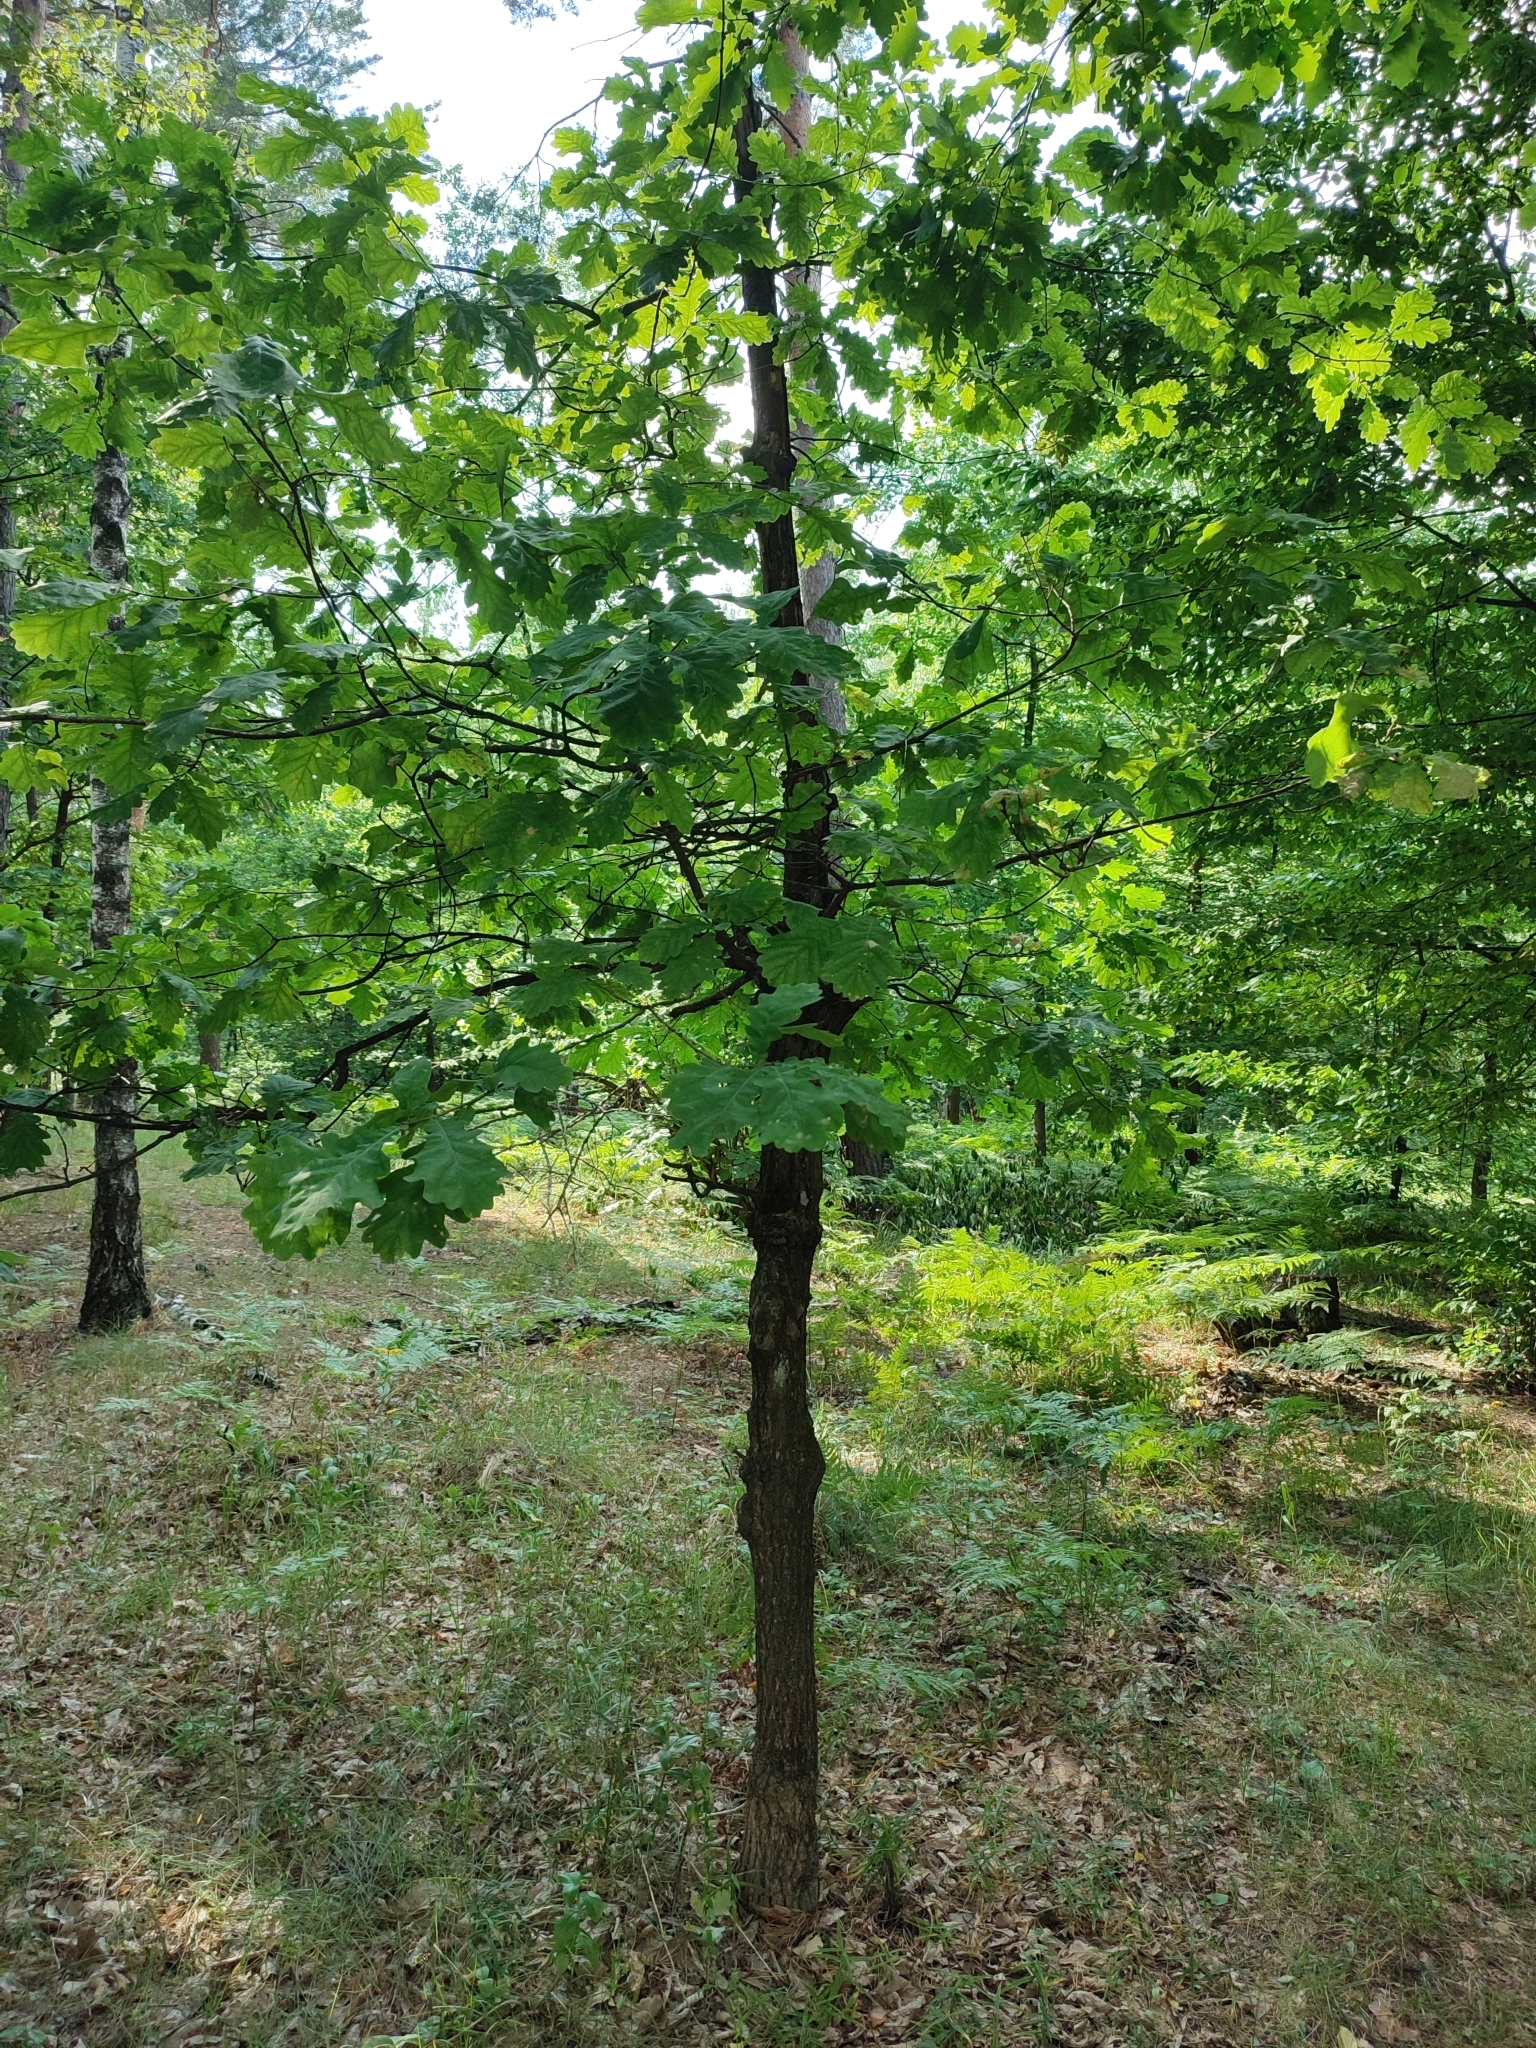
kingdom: Plantae
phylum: Tracheophyta
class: Magnoliopsida
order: Fagales
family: Fagaceae
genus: Quercus
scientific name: Quercus robur
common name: Pedunculate oak
